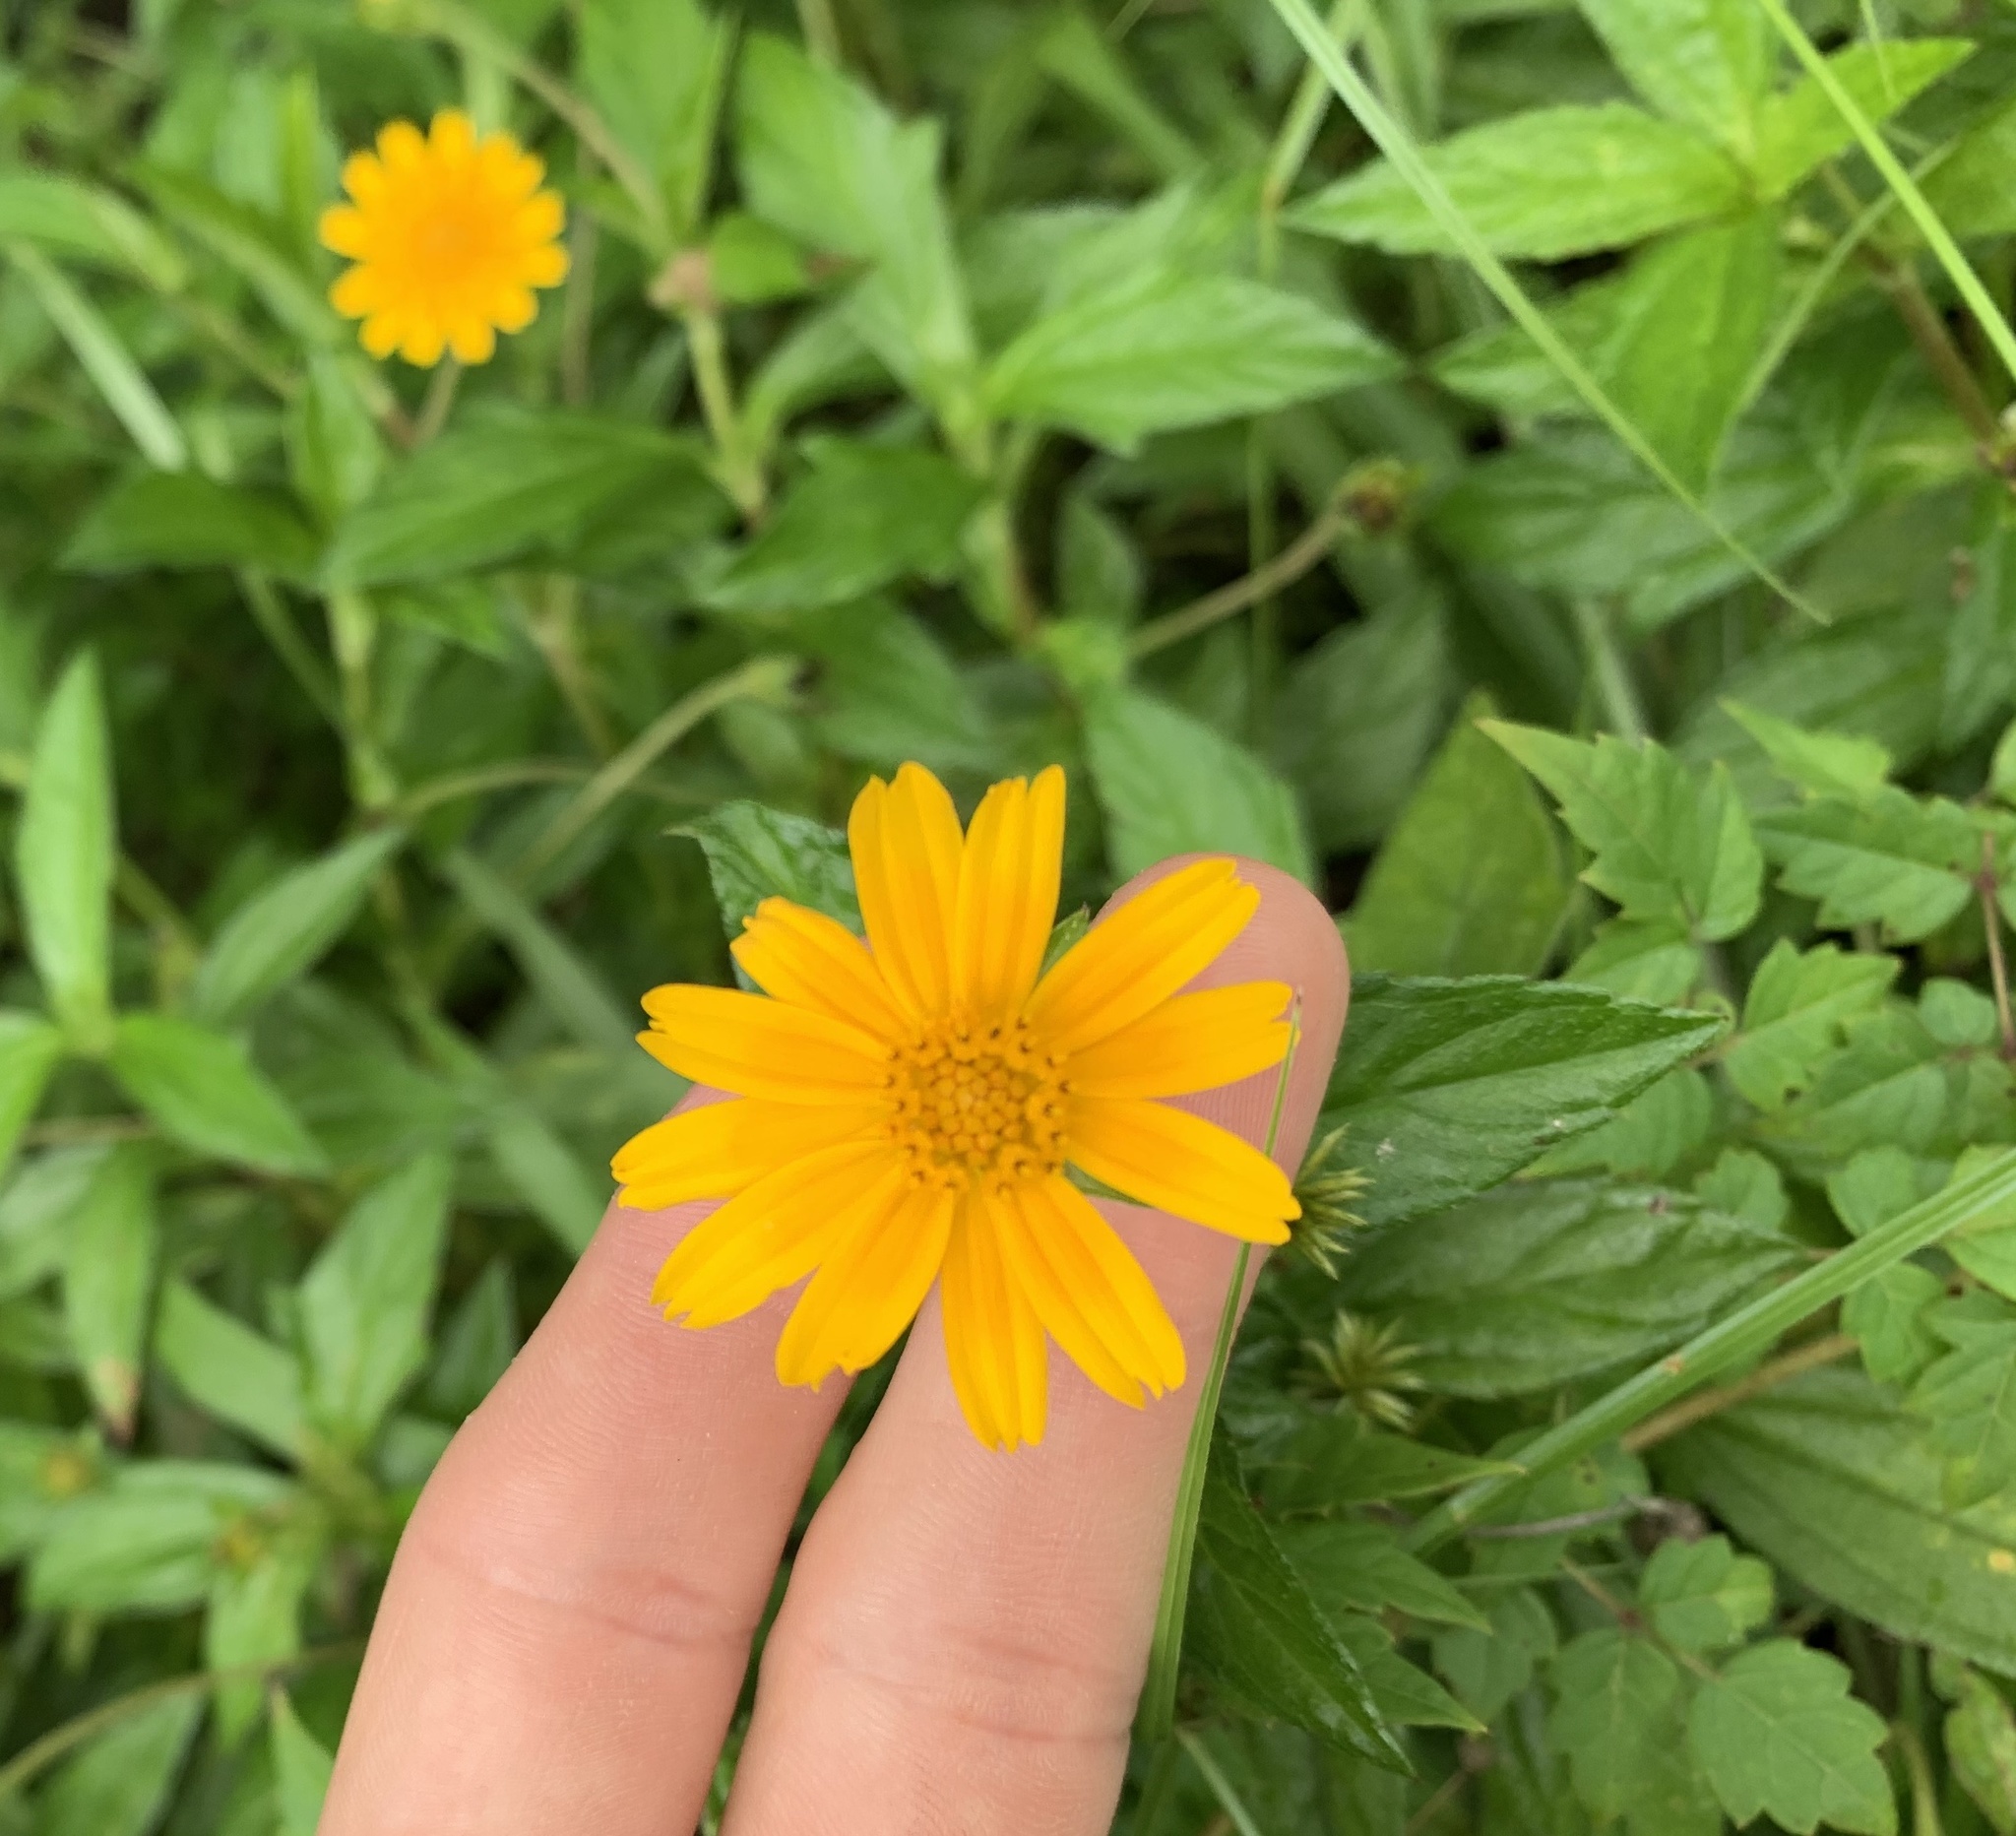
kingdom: Plantae
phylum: Tracheophyta
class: Magnoliopsida
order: Asterales
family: Asteraceae
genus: Sphagneticola
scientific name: Sphagneticola trilobata
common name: Bay biscayne creeping-oxeye
